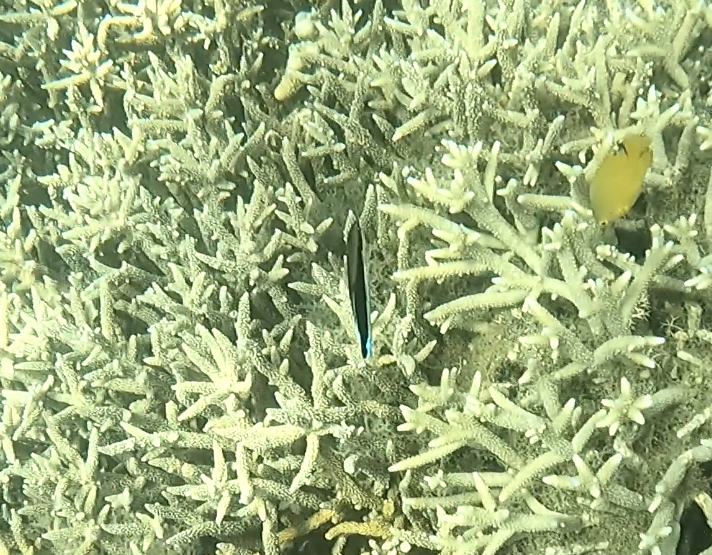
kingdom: Animalia
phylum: Chordata
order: Perciformes
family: Labridae
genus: Labroides
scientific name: Labroides dimidiatus
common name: Blue diesel wrasse
